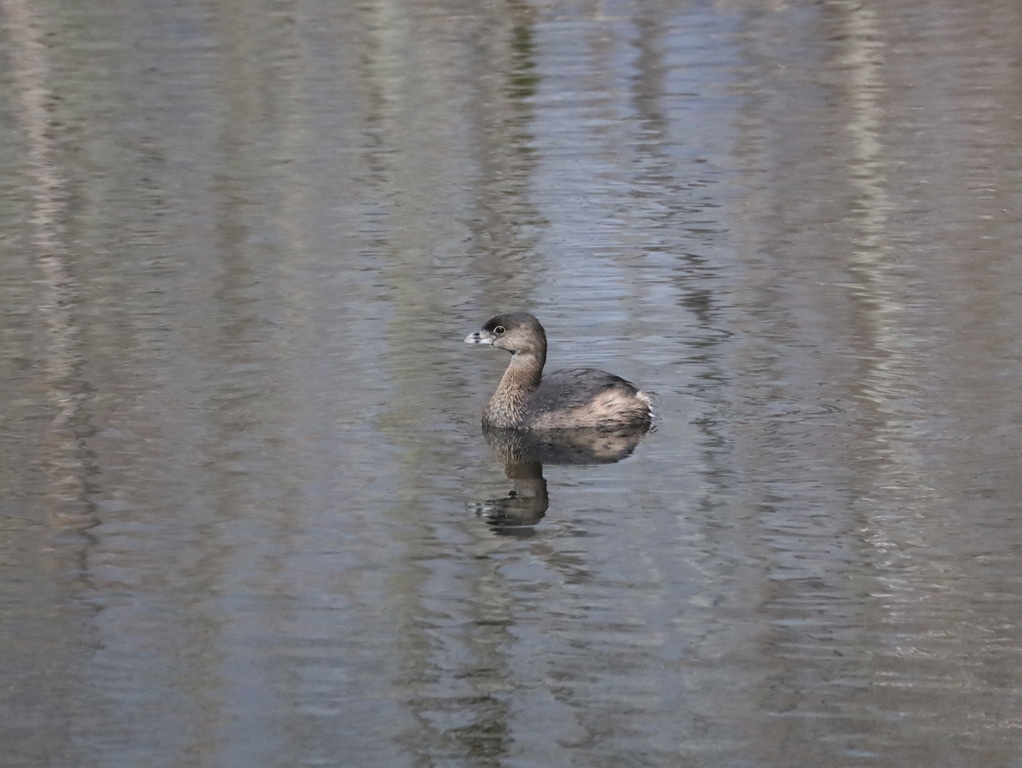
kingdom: Animalia
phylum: Chordata
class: Aves
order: Podicipediformes
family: Podicipedidae
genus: Podilymbus
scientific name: Podilymbus podiceps
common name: Pied-billed grebe
